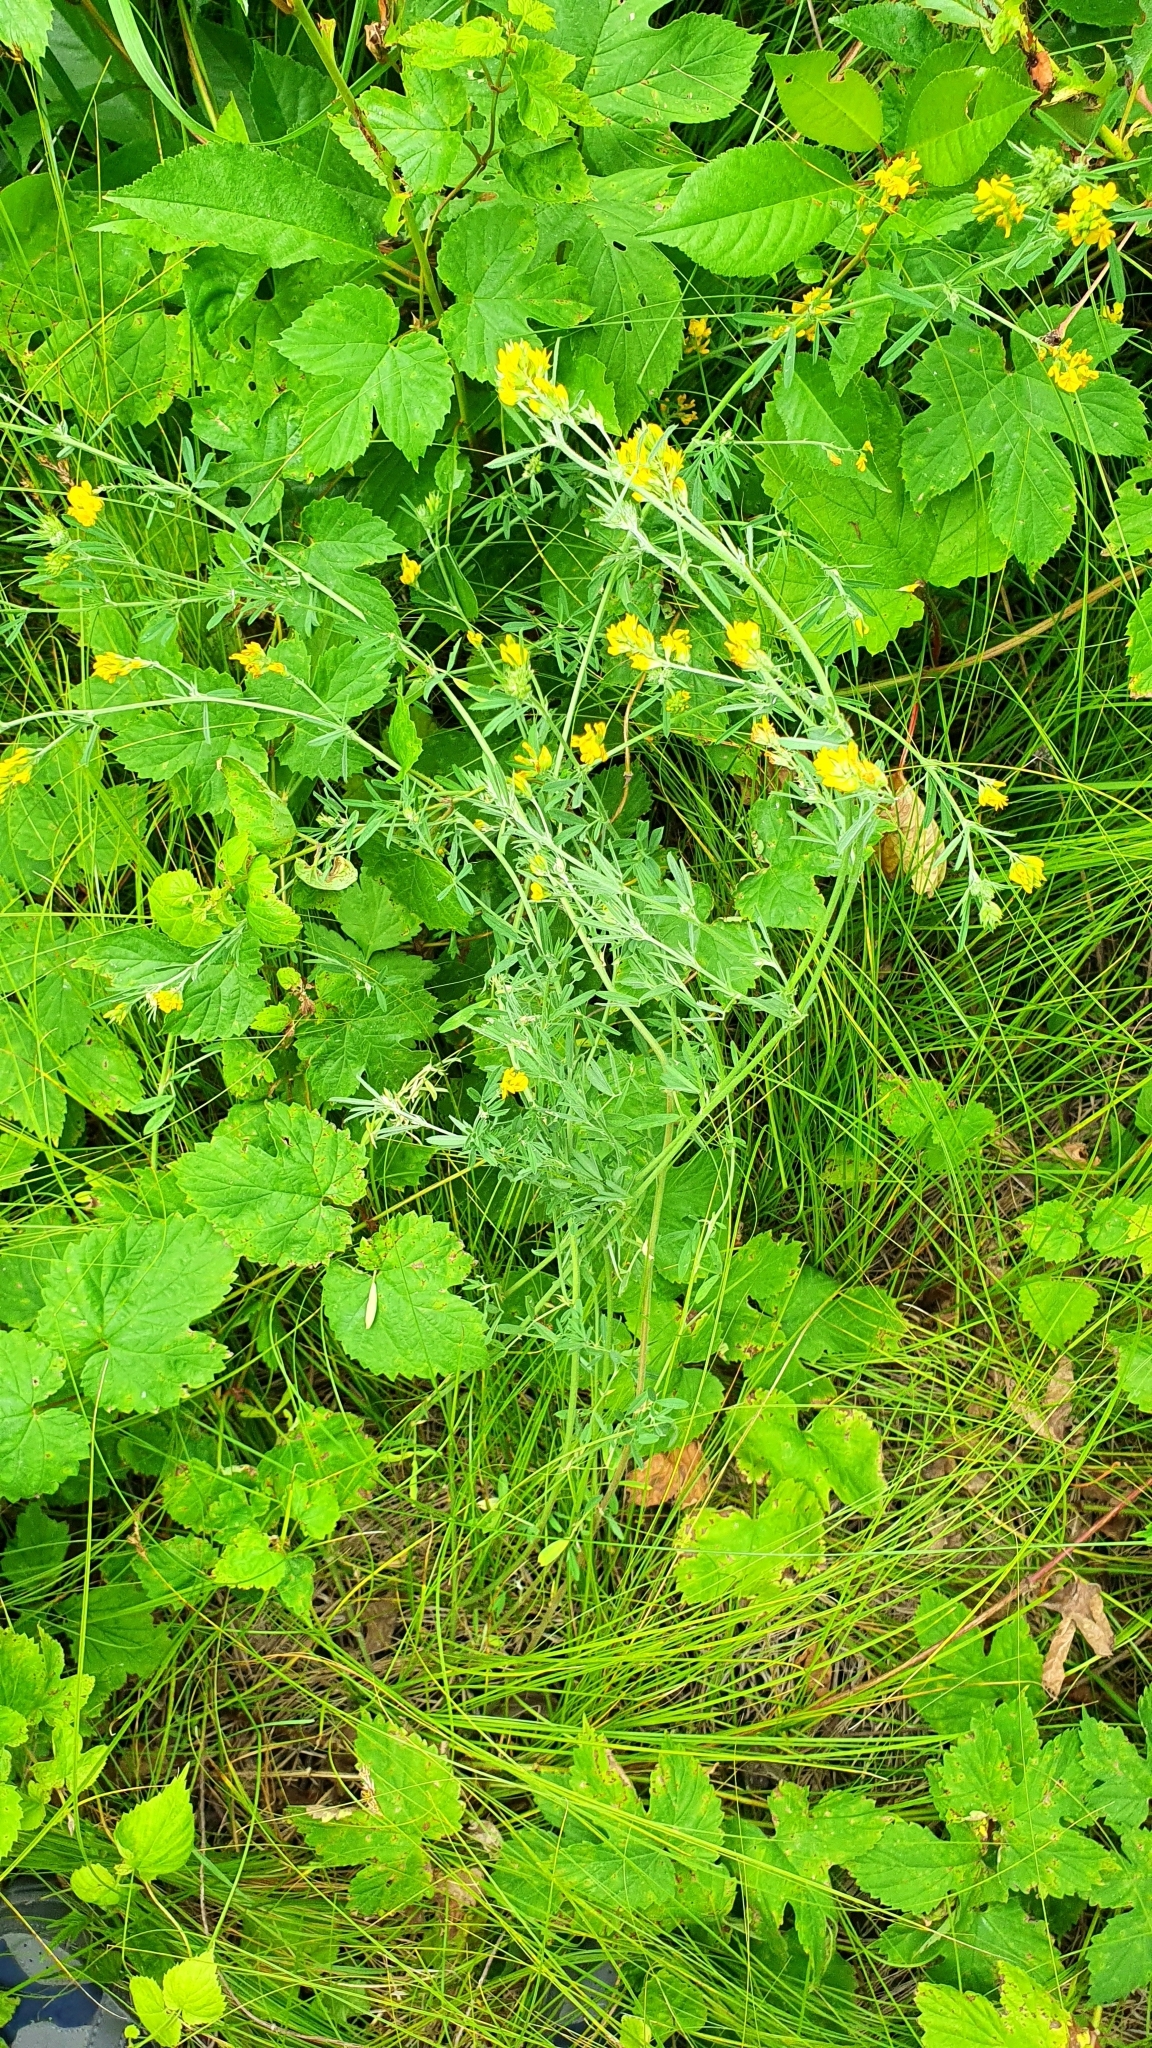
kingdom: Plantae
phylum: Tracheophyta
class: Magnoliopsida
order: Fabales
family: Fabaceae
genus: Medicago
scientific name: Medicago falcata
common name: Sickle medick
